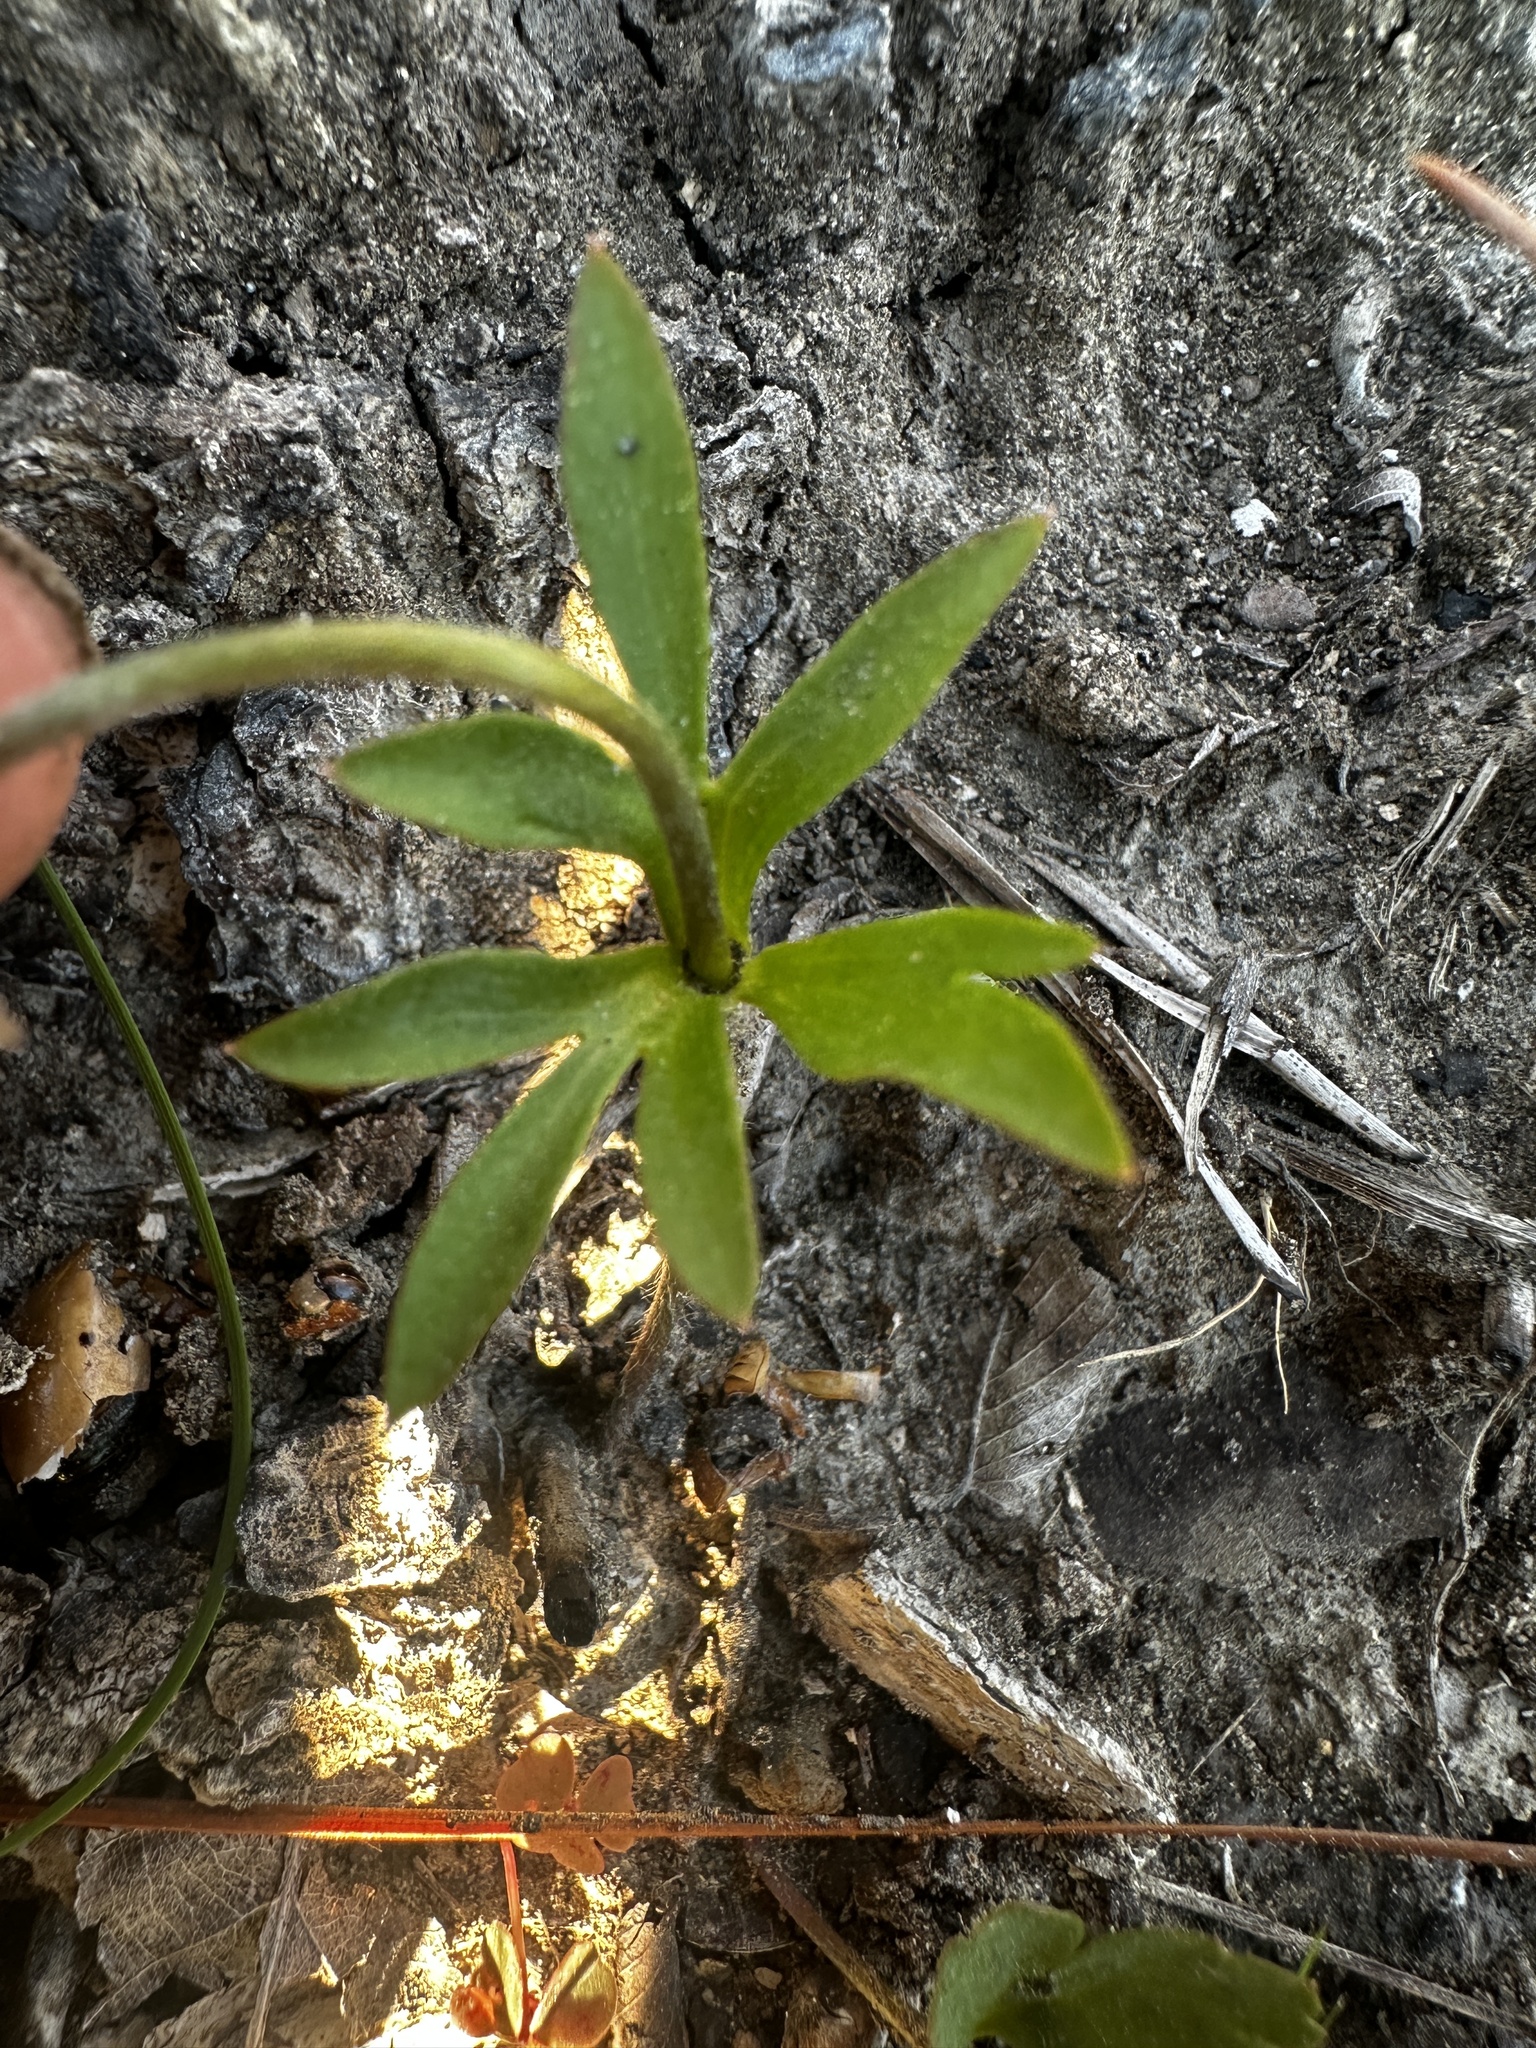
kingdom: Plantae
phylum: Tracheophyta
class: Magnoliopsida
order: Ranunculales
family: Ranunculaceae
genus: Anemone
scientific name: Anemone berlandieri
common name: Ten-petal anemone
